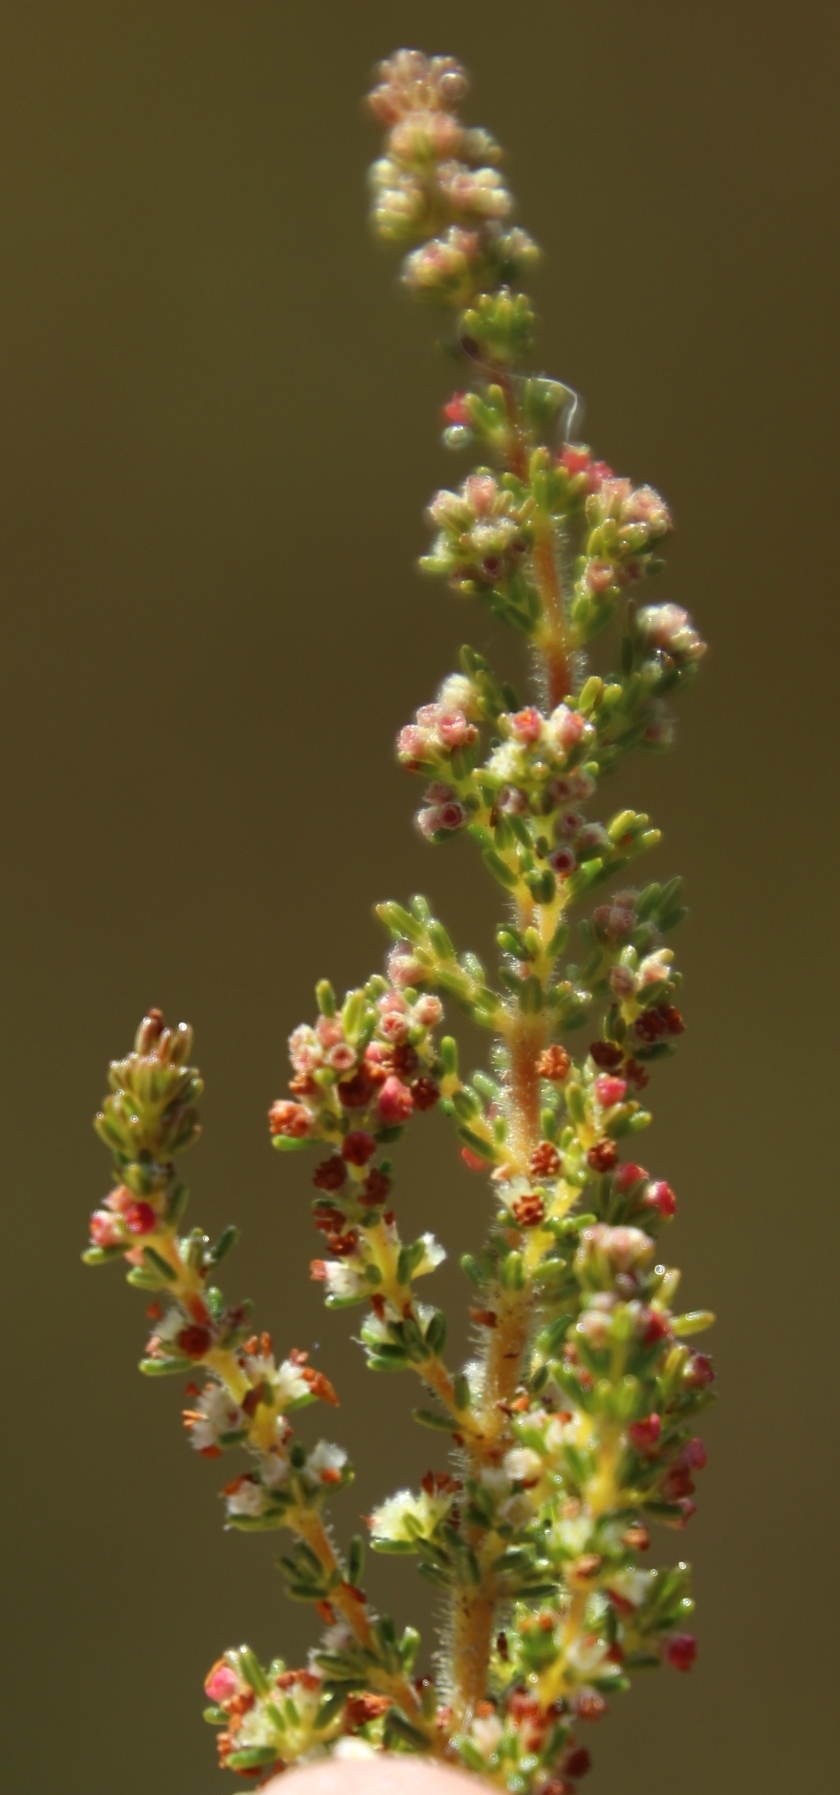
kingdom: Plantae
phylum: Tracheophyta
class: Magnoliopsida
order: Ericales
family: Ericaceae
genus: Erica
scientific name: Erica muscosa
